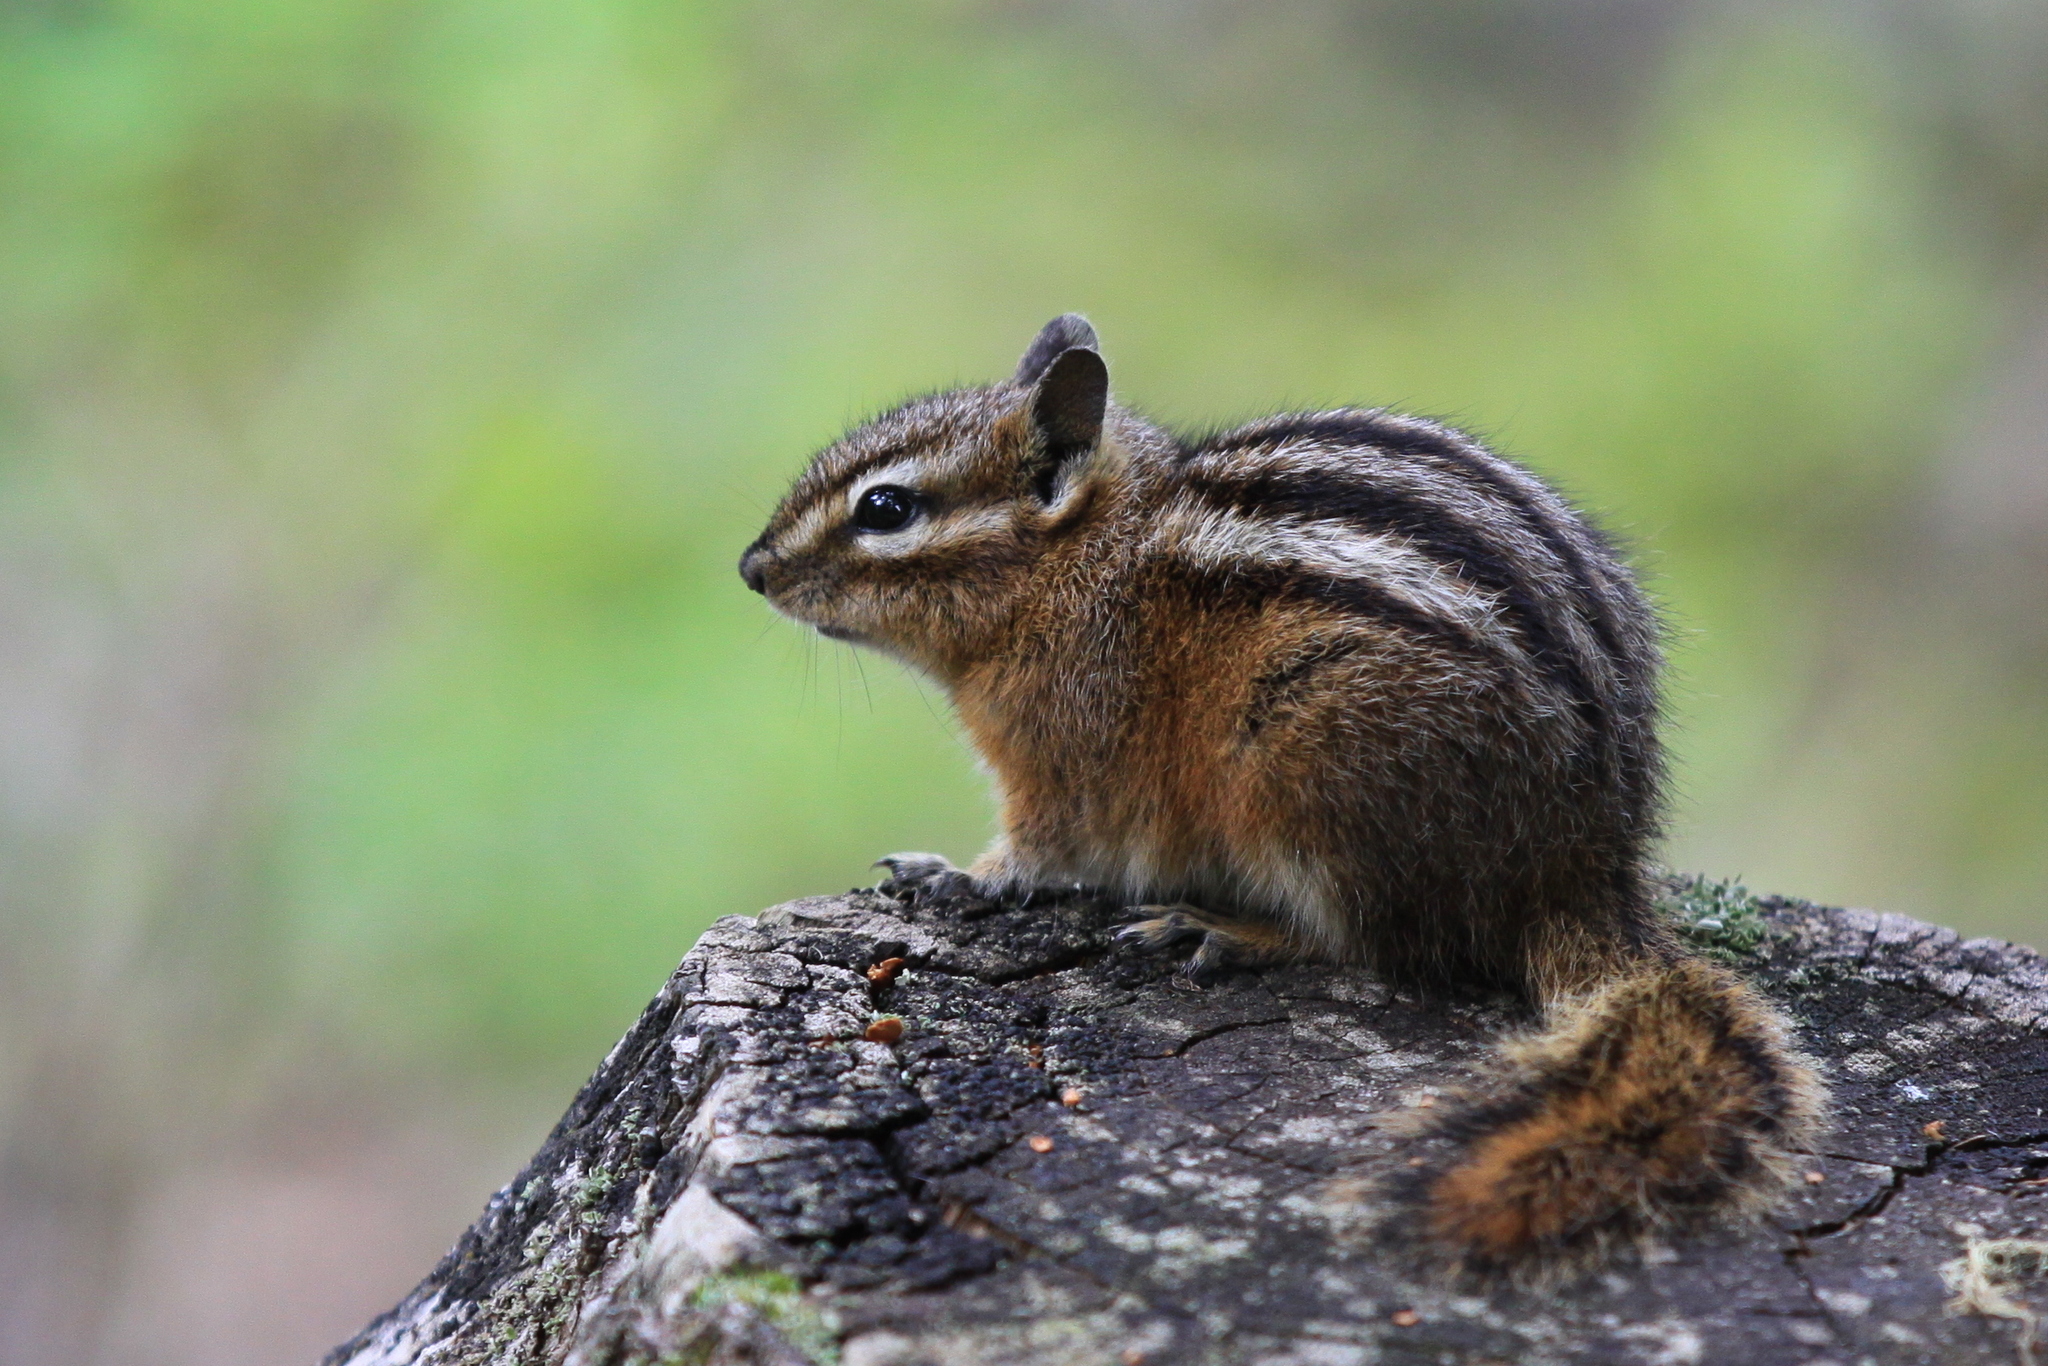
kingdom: Animalia
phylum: Chordata
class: Mammalia
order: Rodentia
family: Sciuridae
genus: Tamias
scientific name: Tamias amoenus
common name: Yellow-pine chipmunk
